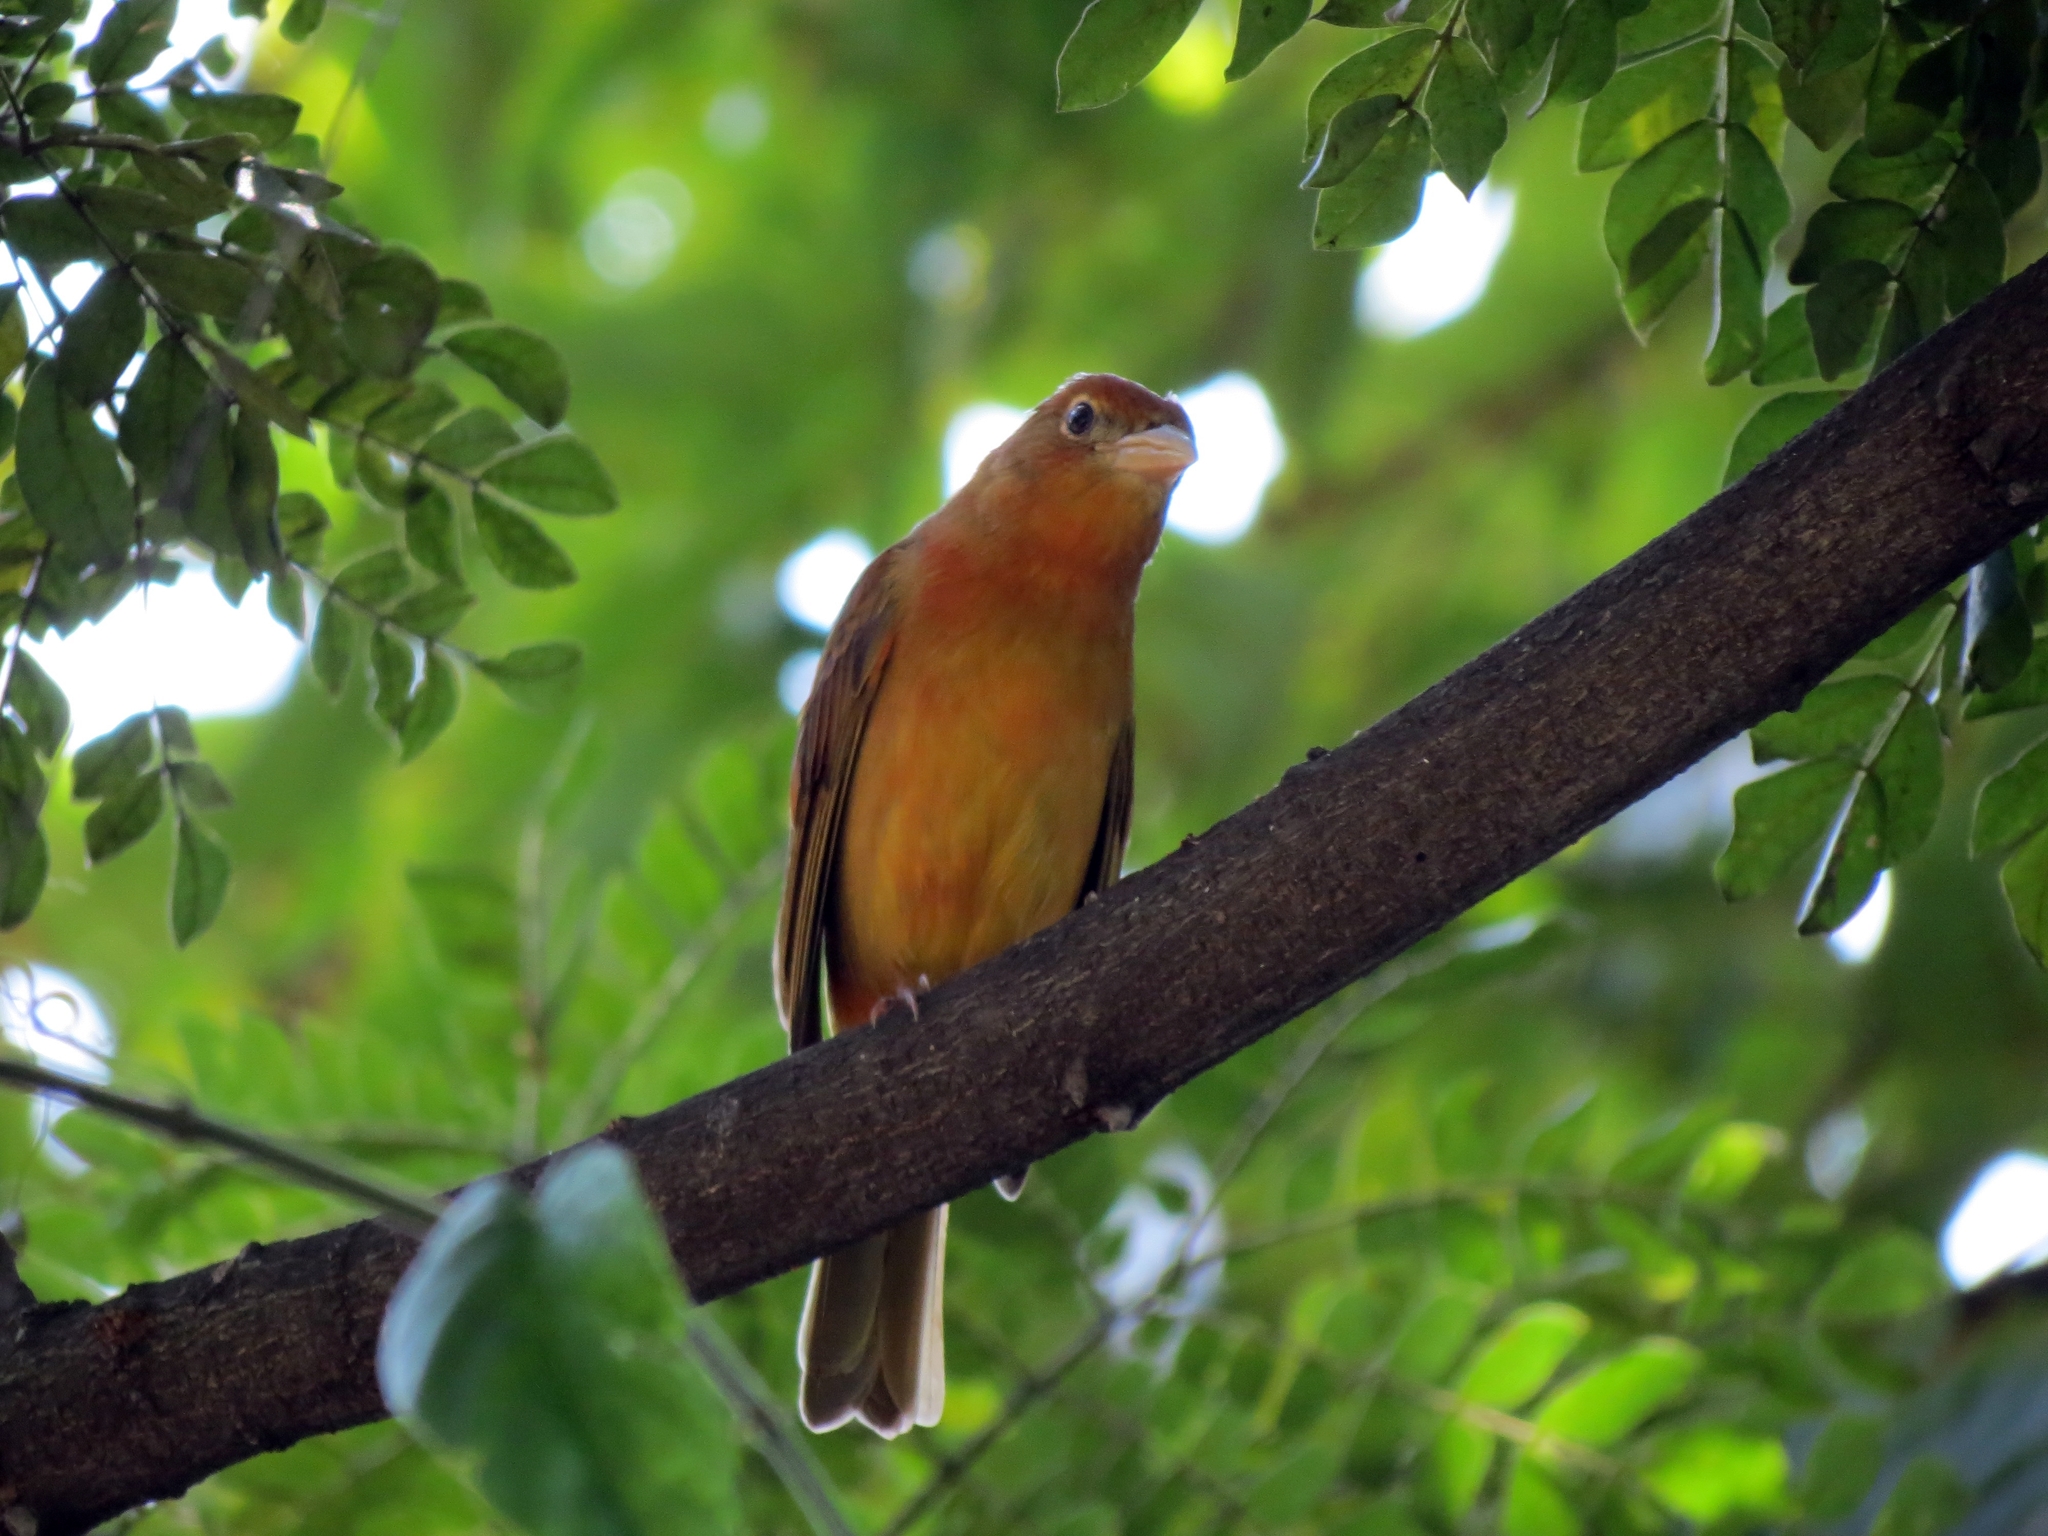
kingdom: Animalia
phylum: Chordata
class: Aves
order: Passeriformes
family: Cardinalidae
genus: Piranga
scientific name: Piranga rubra
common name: Summer tanager
